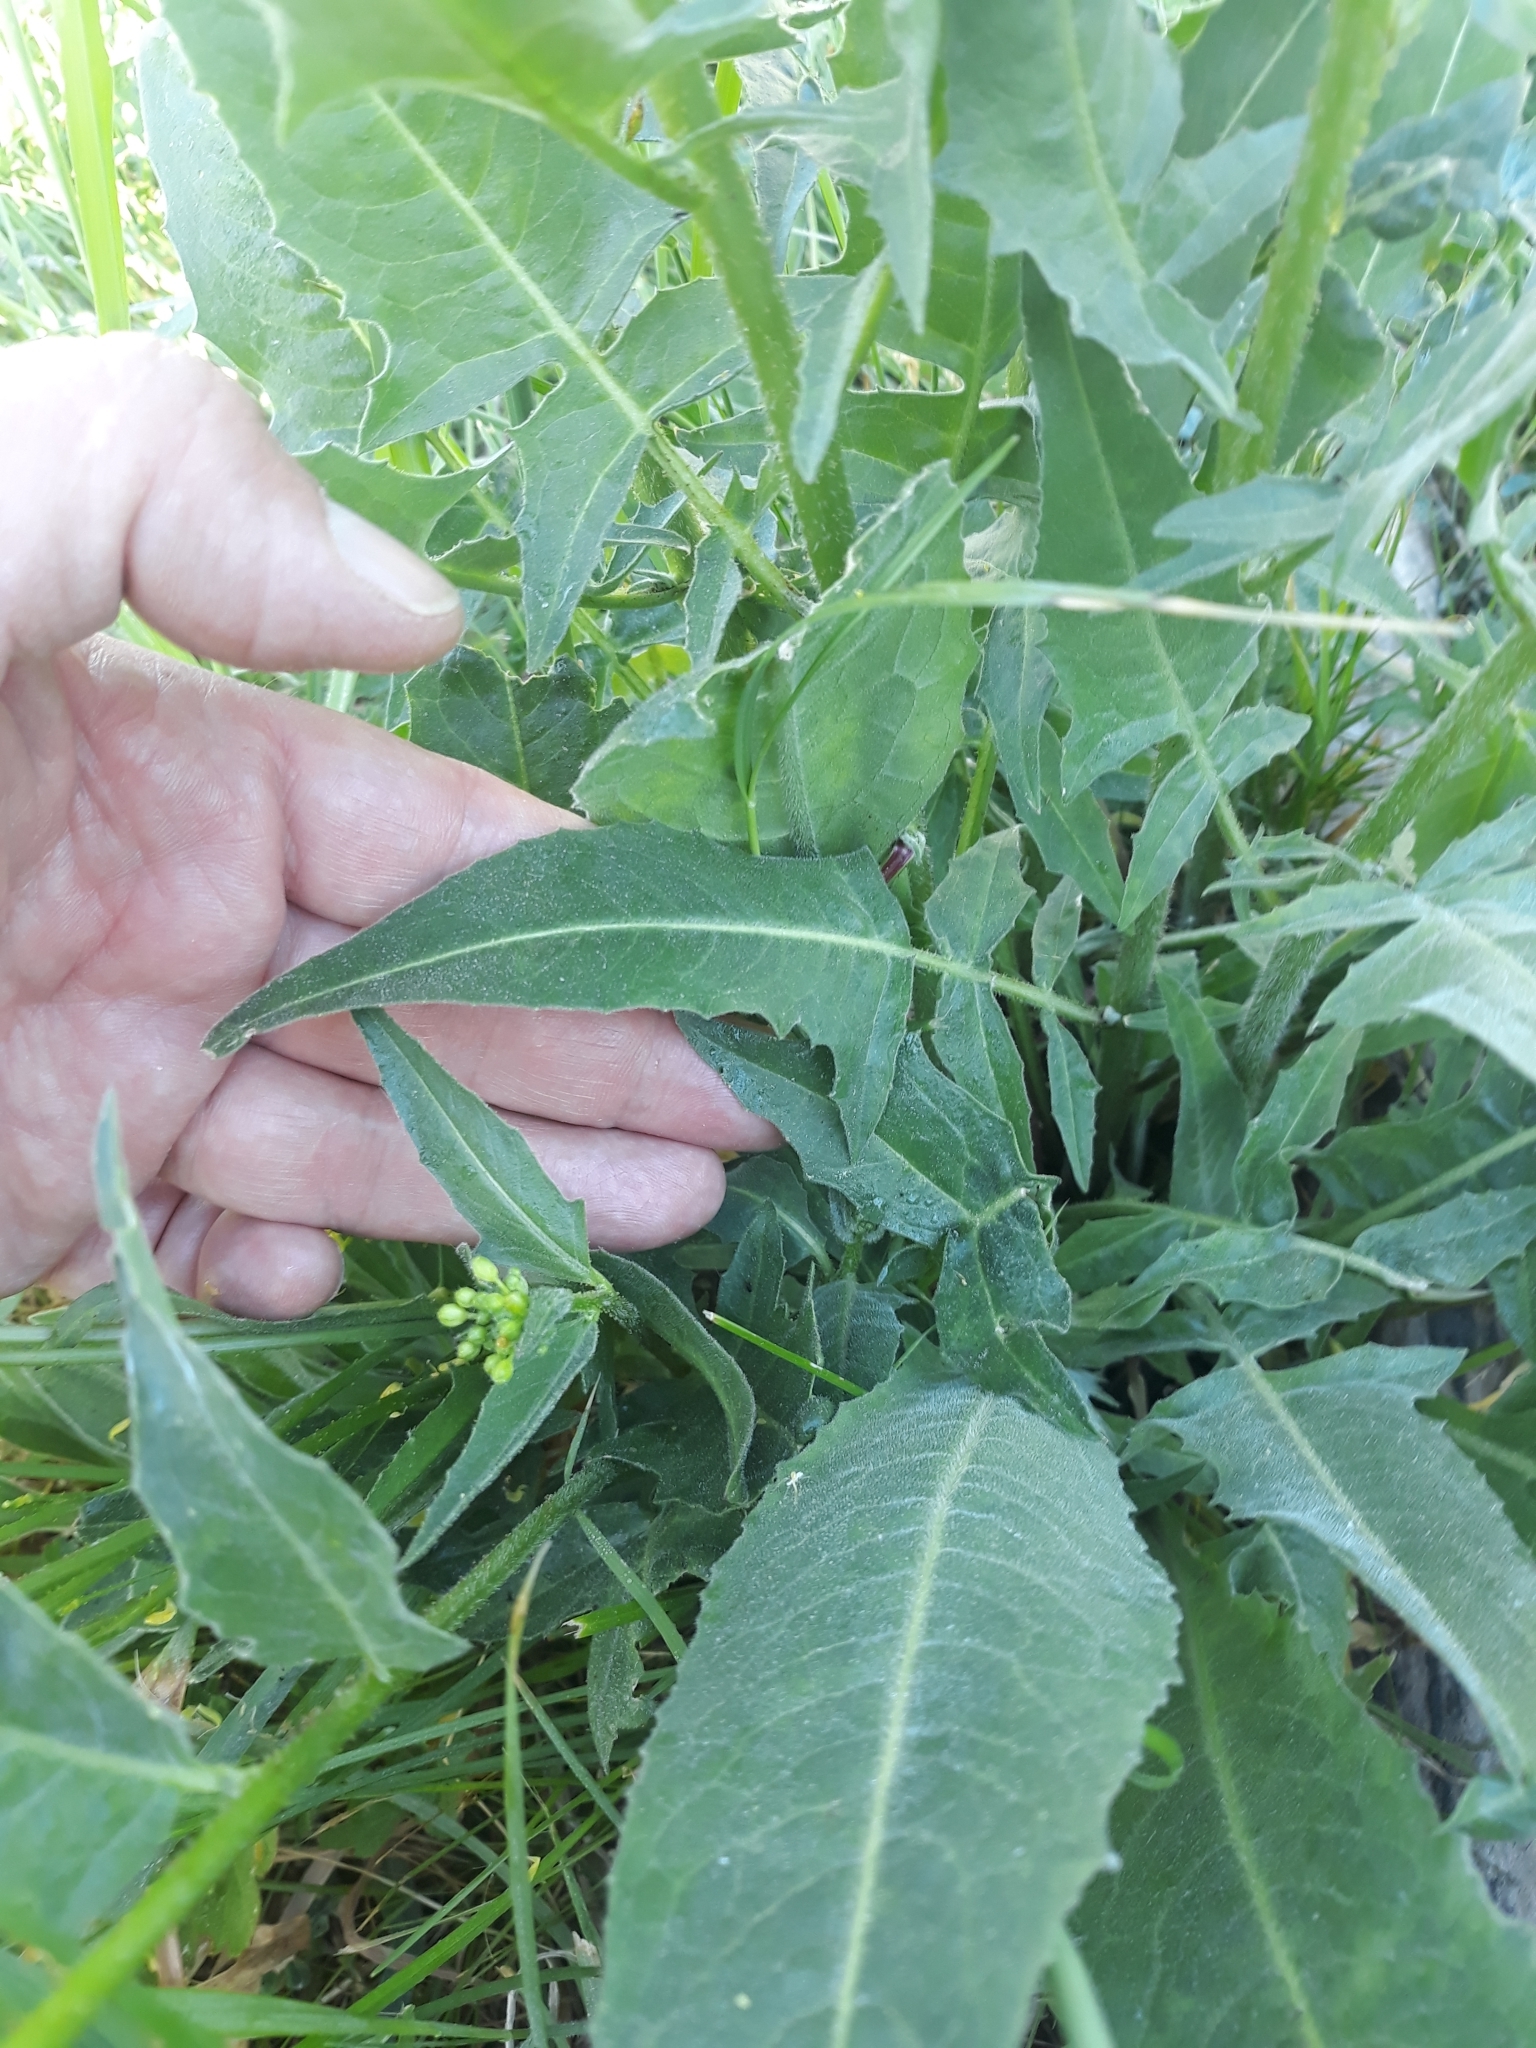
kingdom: Plantae
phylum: Tracheophyta
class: Magnoliopsida
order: Brassicales
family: Brassicaceae
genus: Bunias
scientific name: Bunias orientalis
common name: Warty-cabbage
